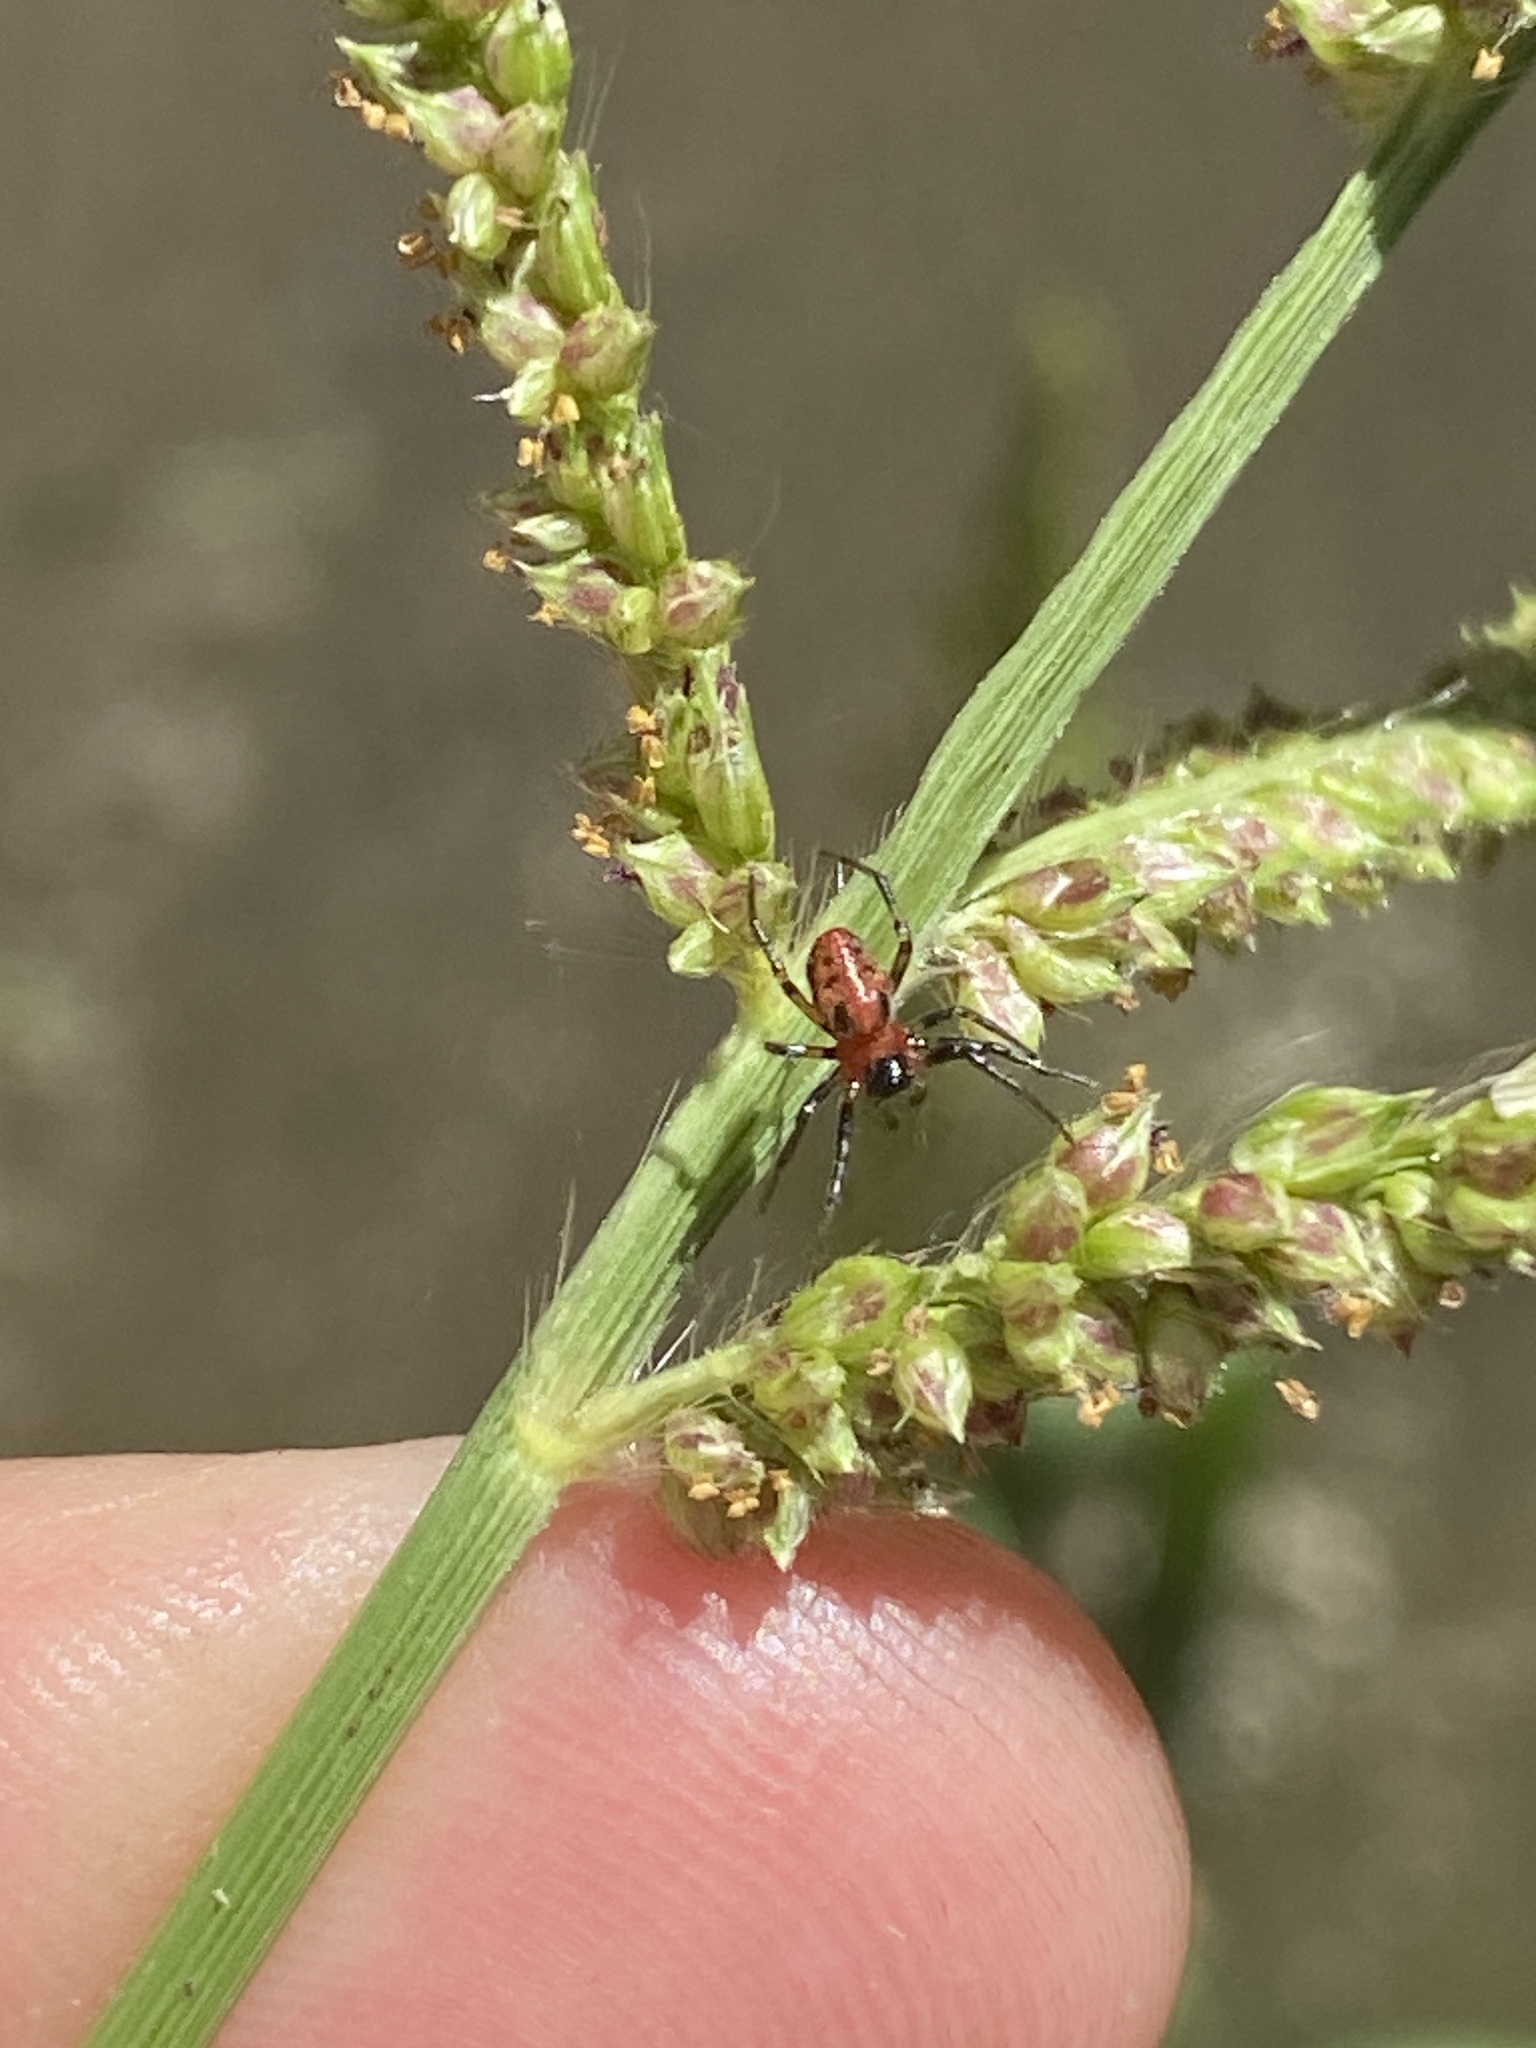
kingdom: Animalia
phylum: Arthropoda
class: Arachnida
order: Araneae
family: Araneidae
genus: Alpaida
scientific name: Alpaida versicolor
